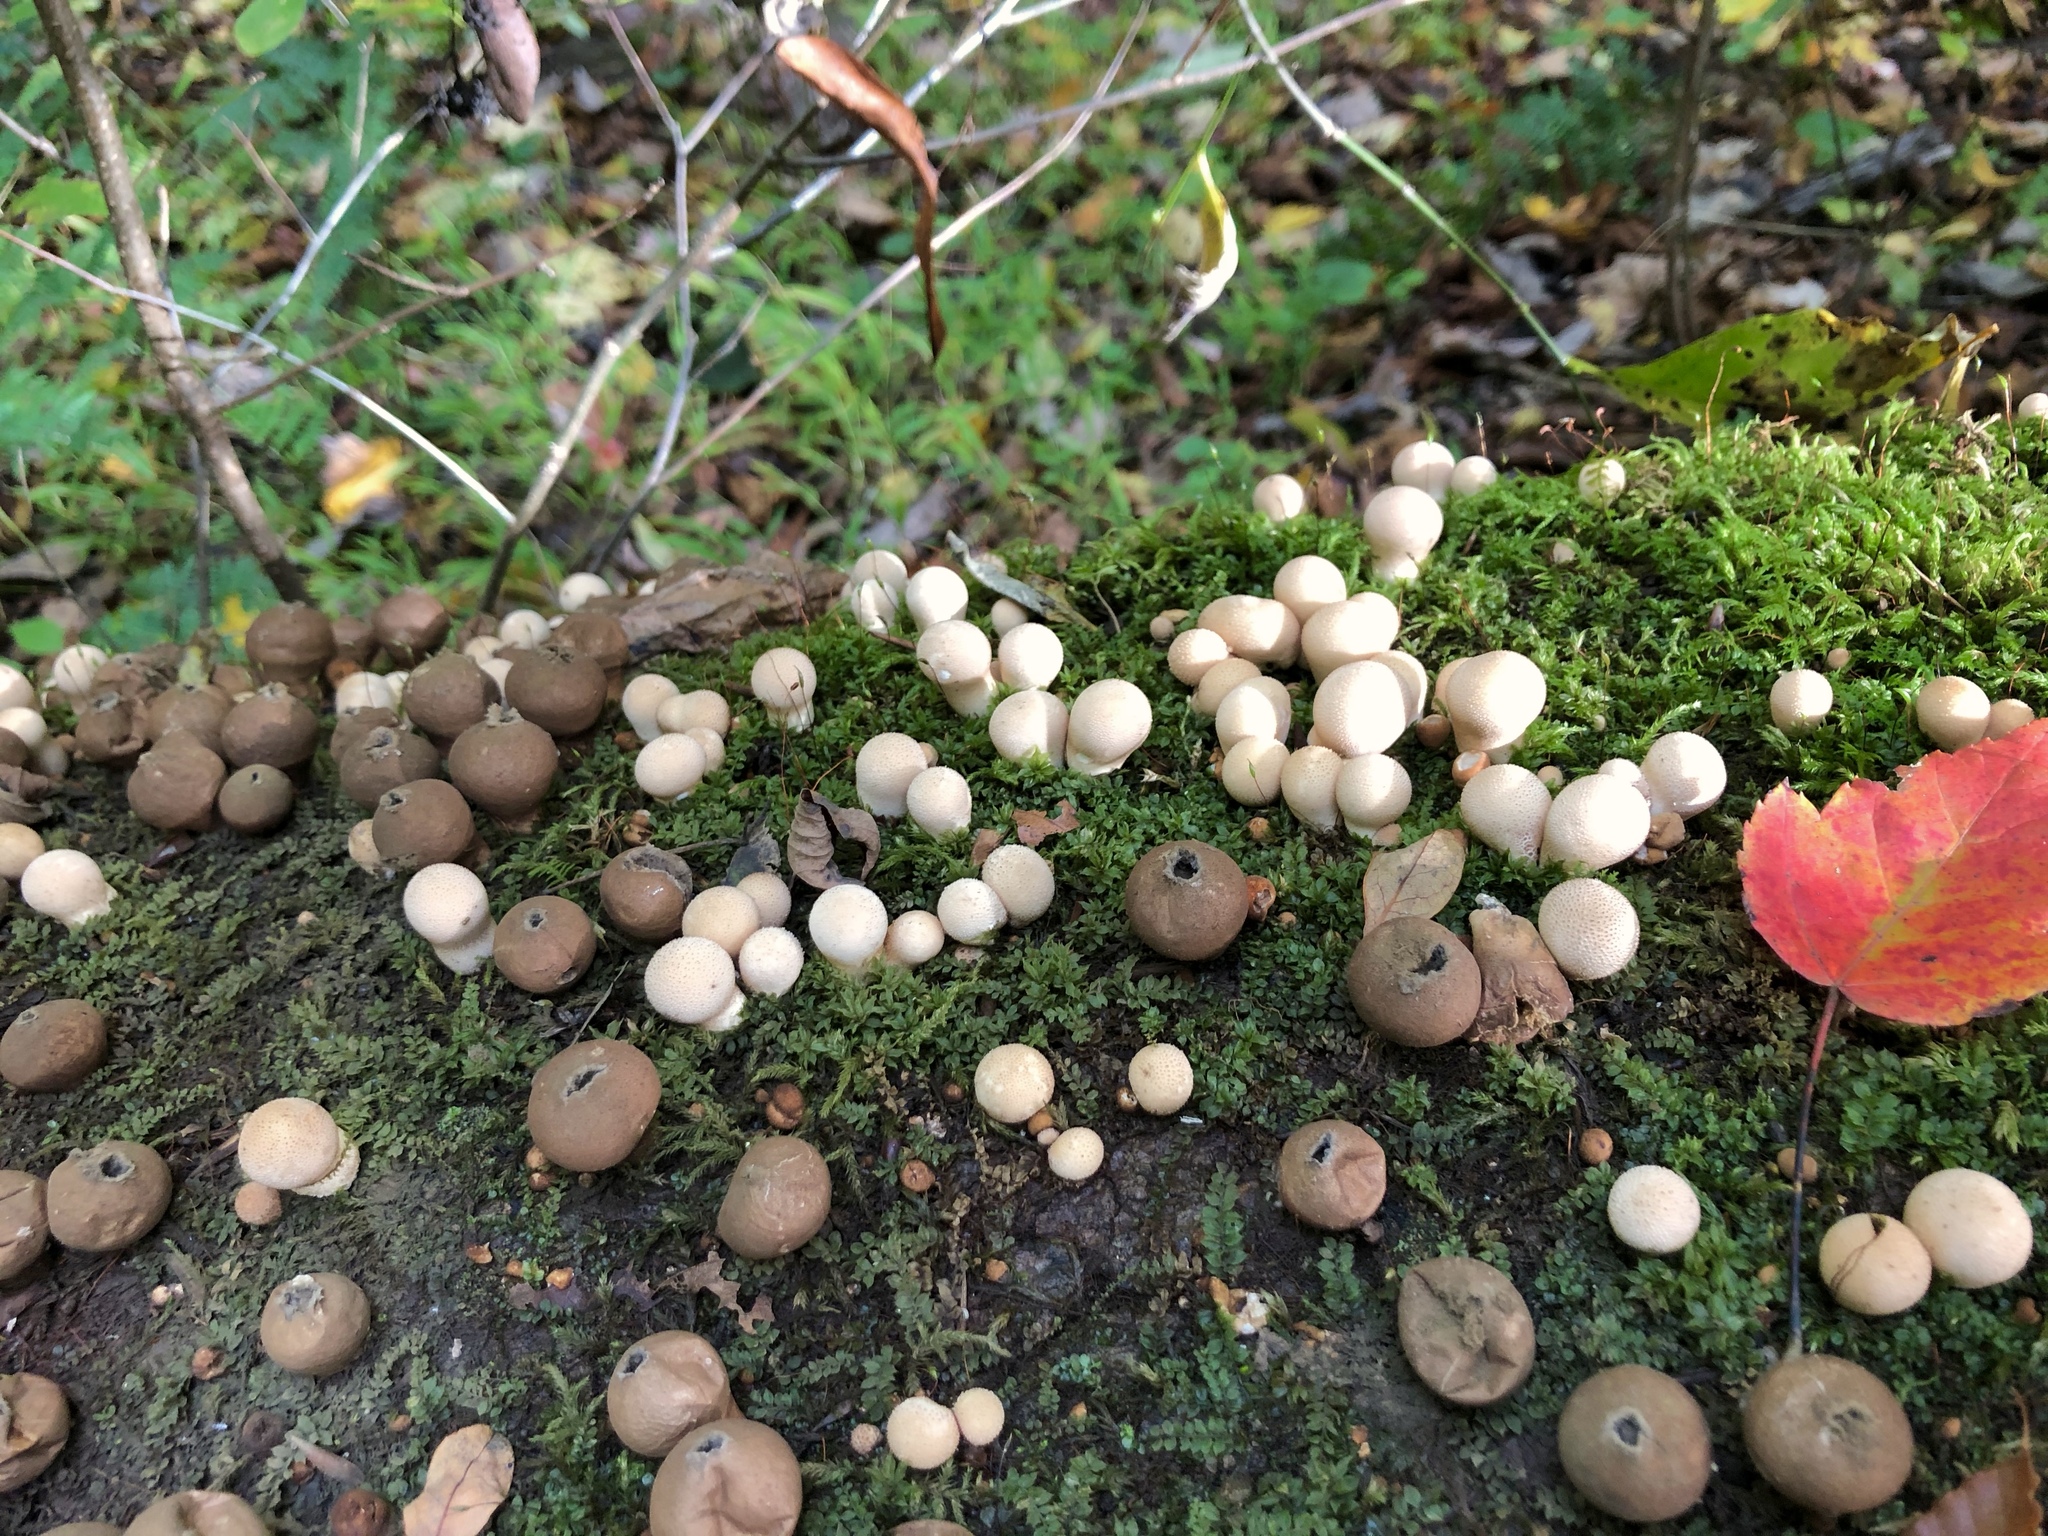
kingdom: Fungi
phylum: Basidiomycota
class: Agaricomycetes
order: Agaricales
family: Lycoperdaceae
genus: Apioperdon
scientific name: Apioperdon pyriforme
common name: Pear-shaped puffball
